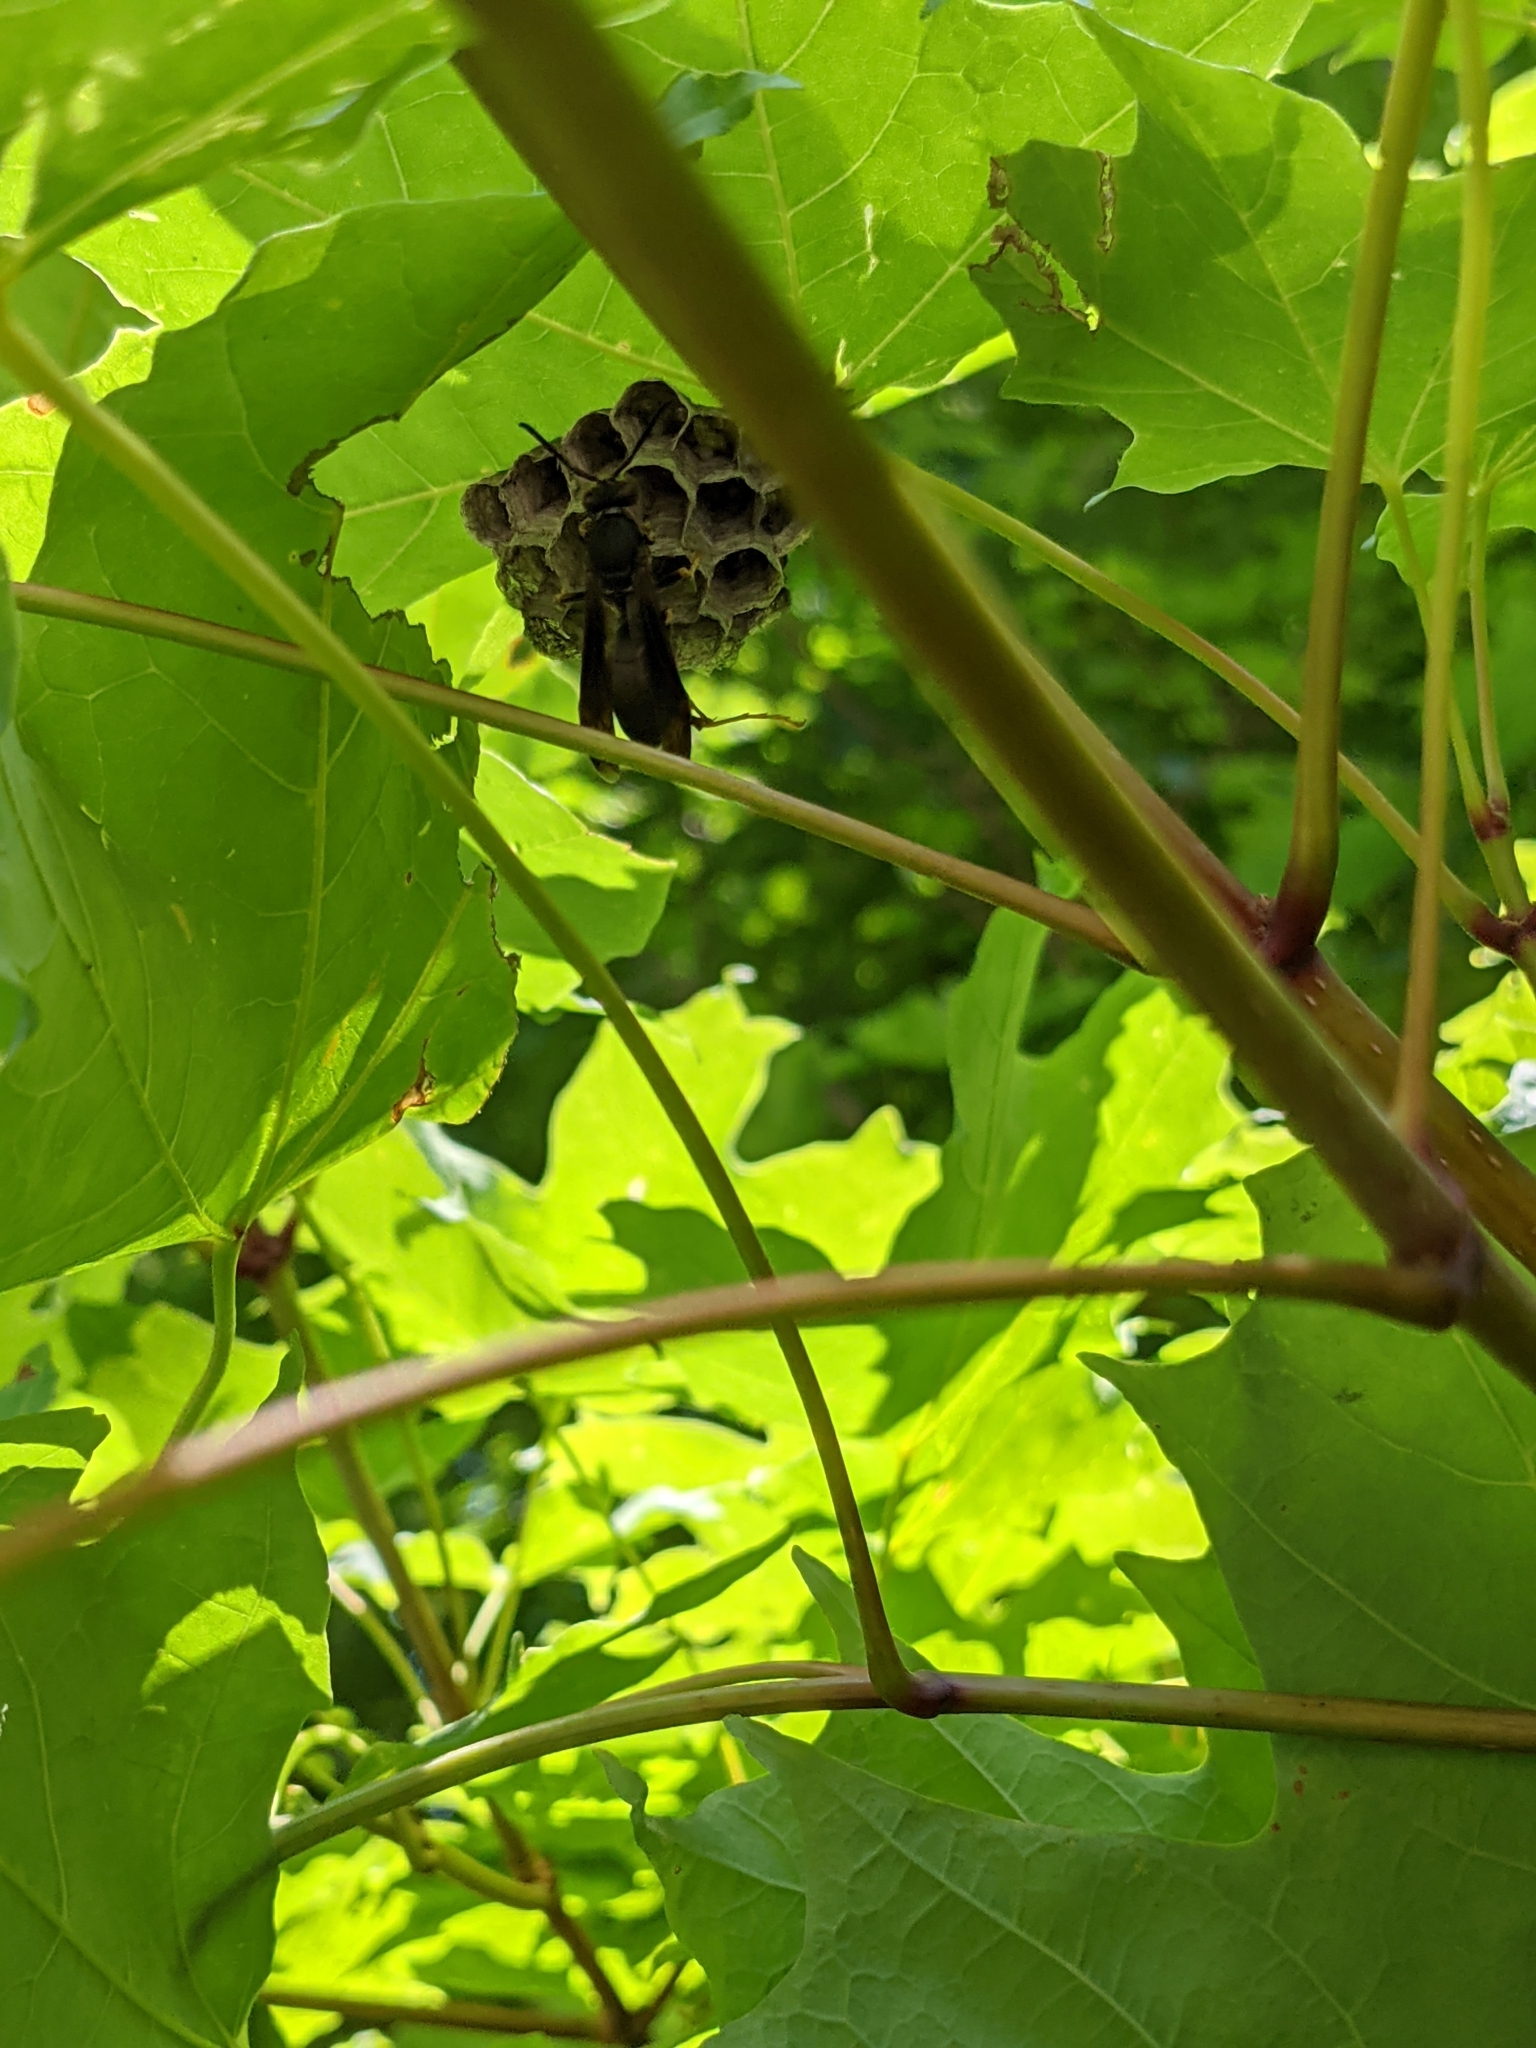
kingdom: Animalia
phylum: Arthropoda
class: Insecta
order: Hymenoptera
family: Eumenidae
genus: Polistes
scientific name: Polistes fuscatus
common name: Dark paper wasp
